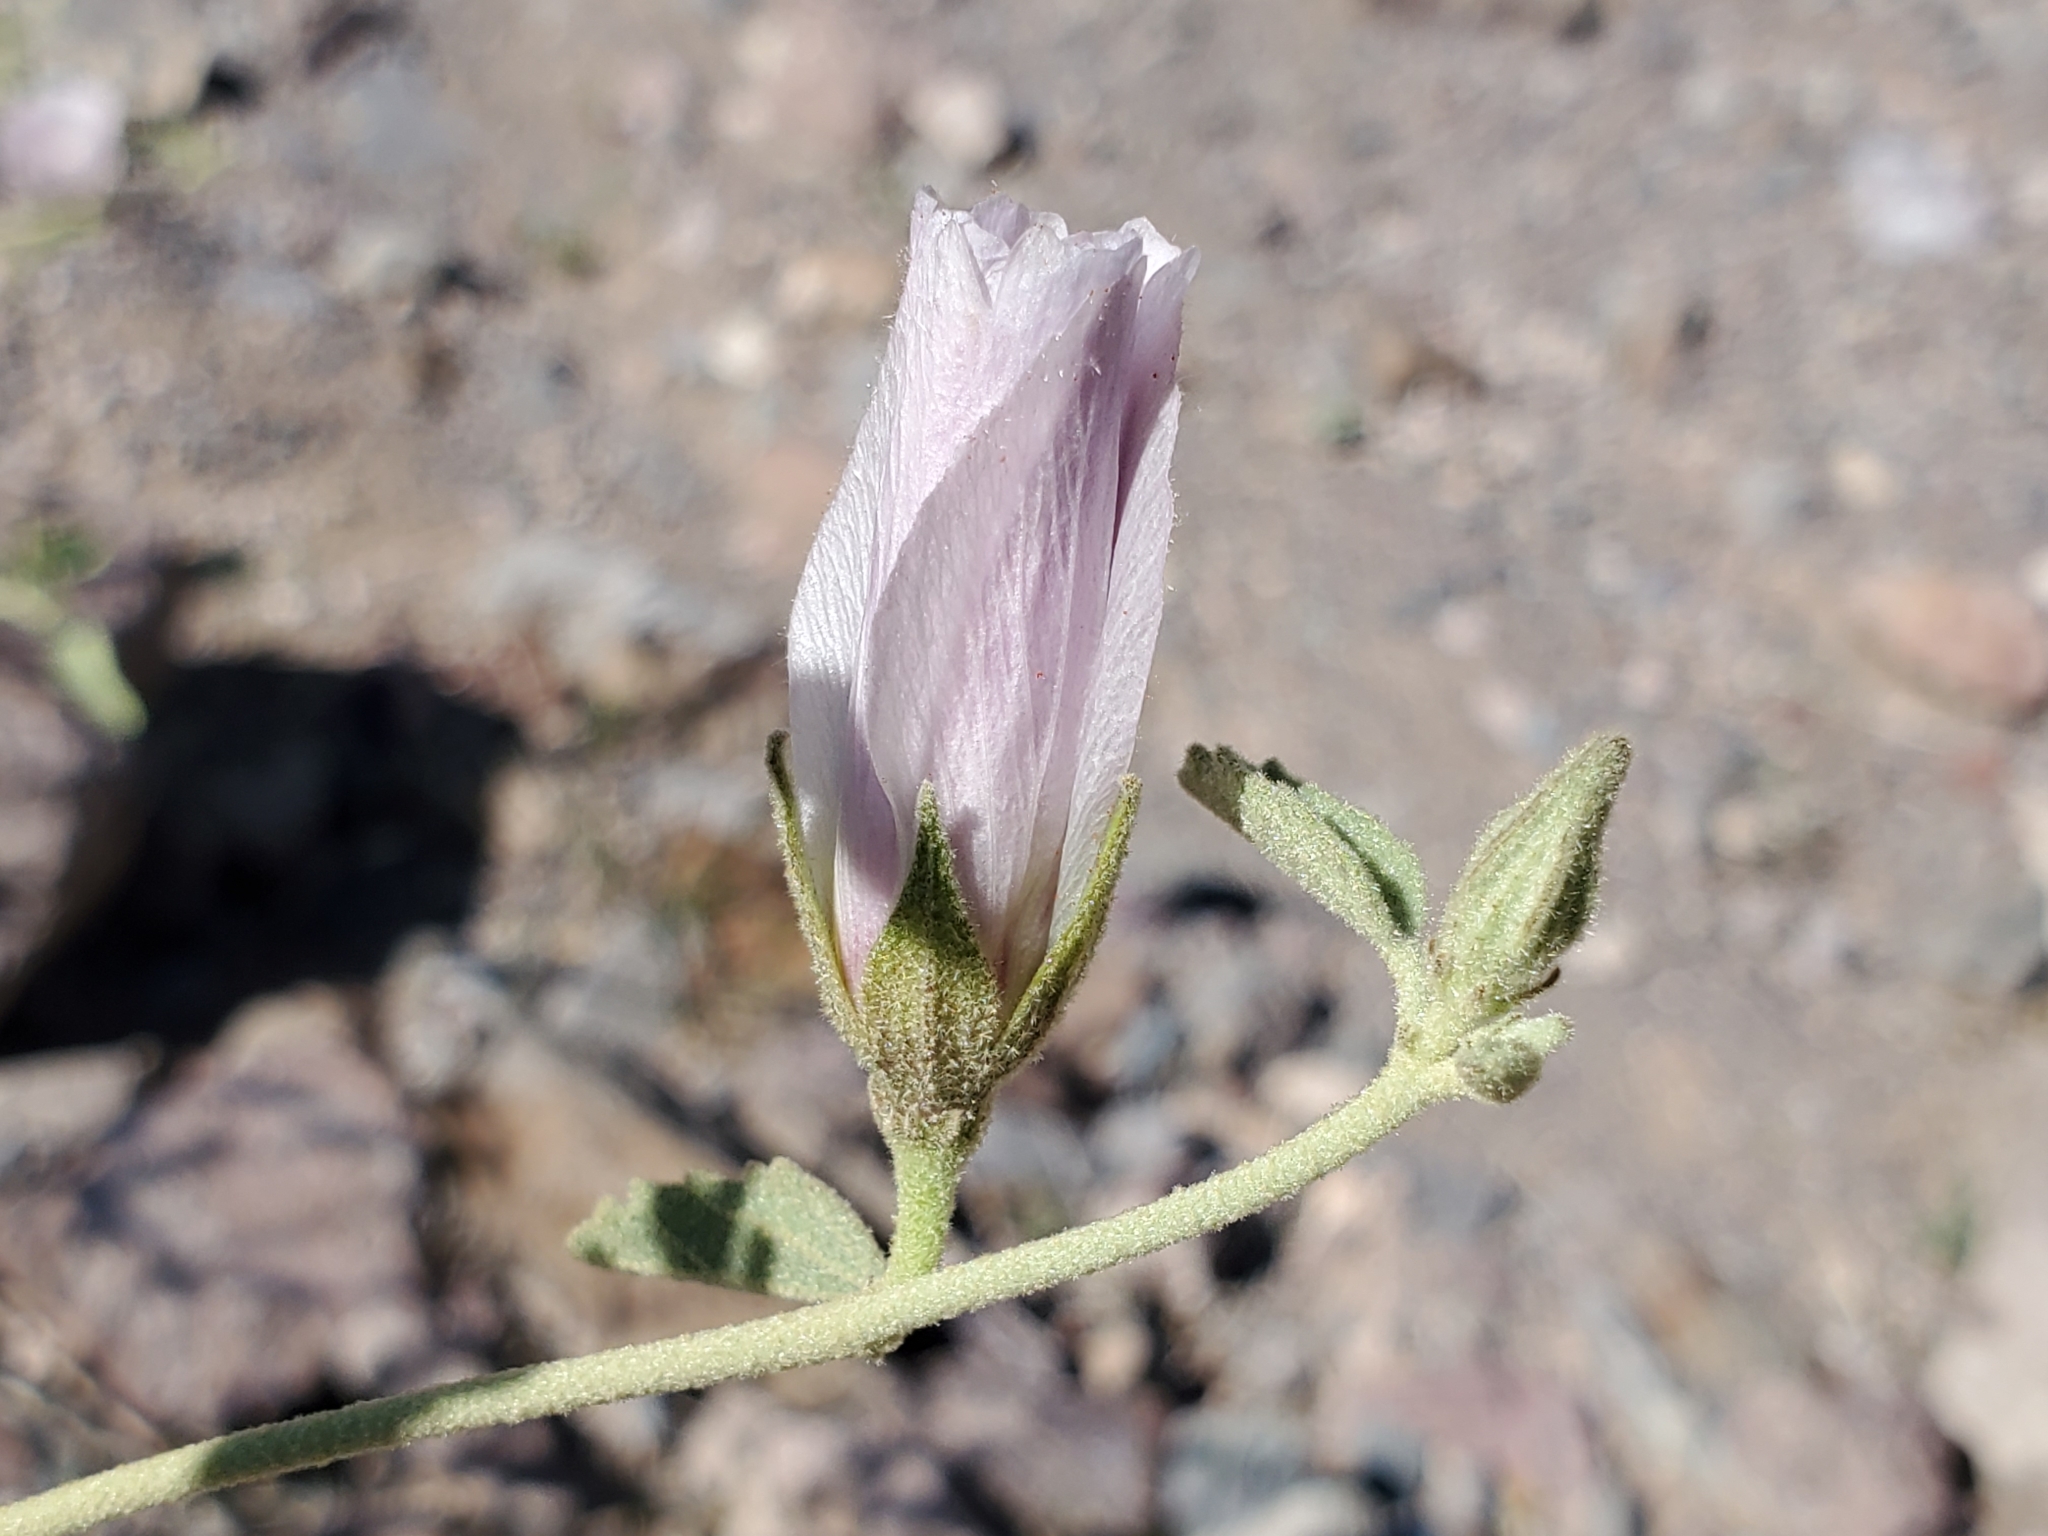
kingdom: Plantae
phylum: Tracheophyta
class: Magnoliopsida
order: Malvales
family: Malvaceae
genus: Hibiscus
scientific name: Hibiscus denudatus
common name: Paleface
